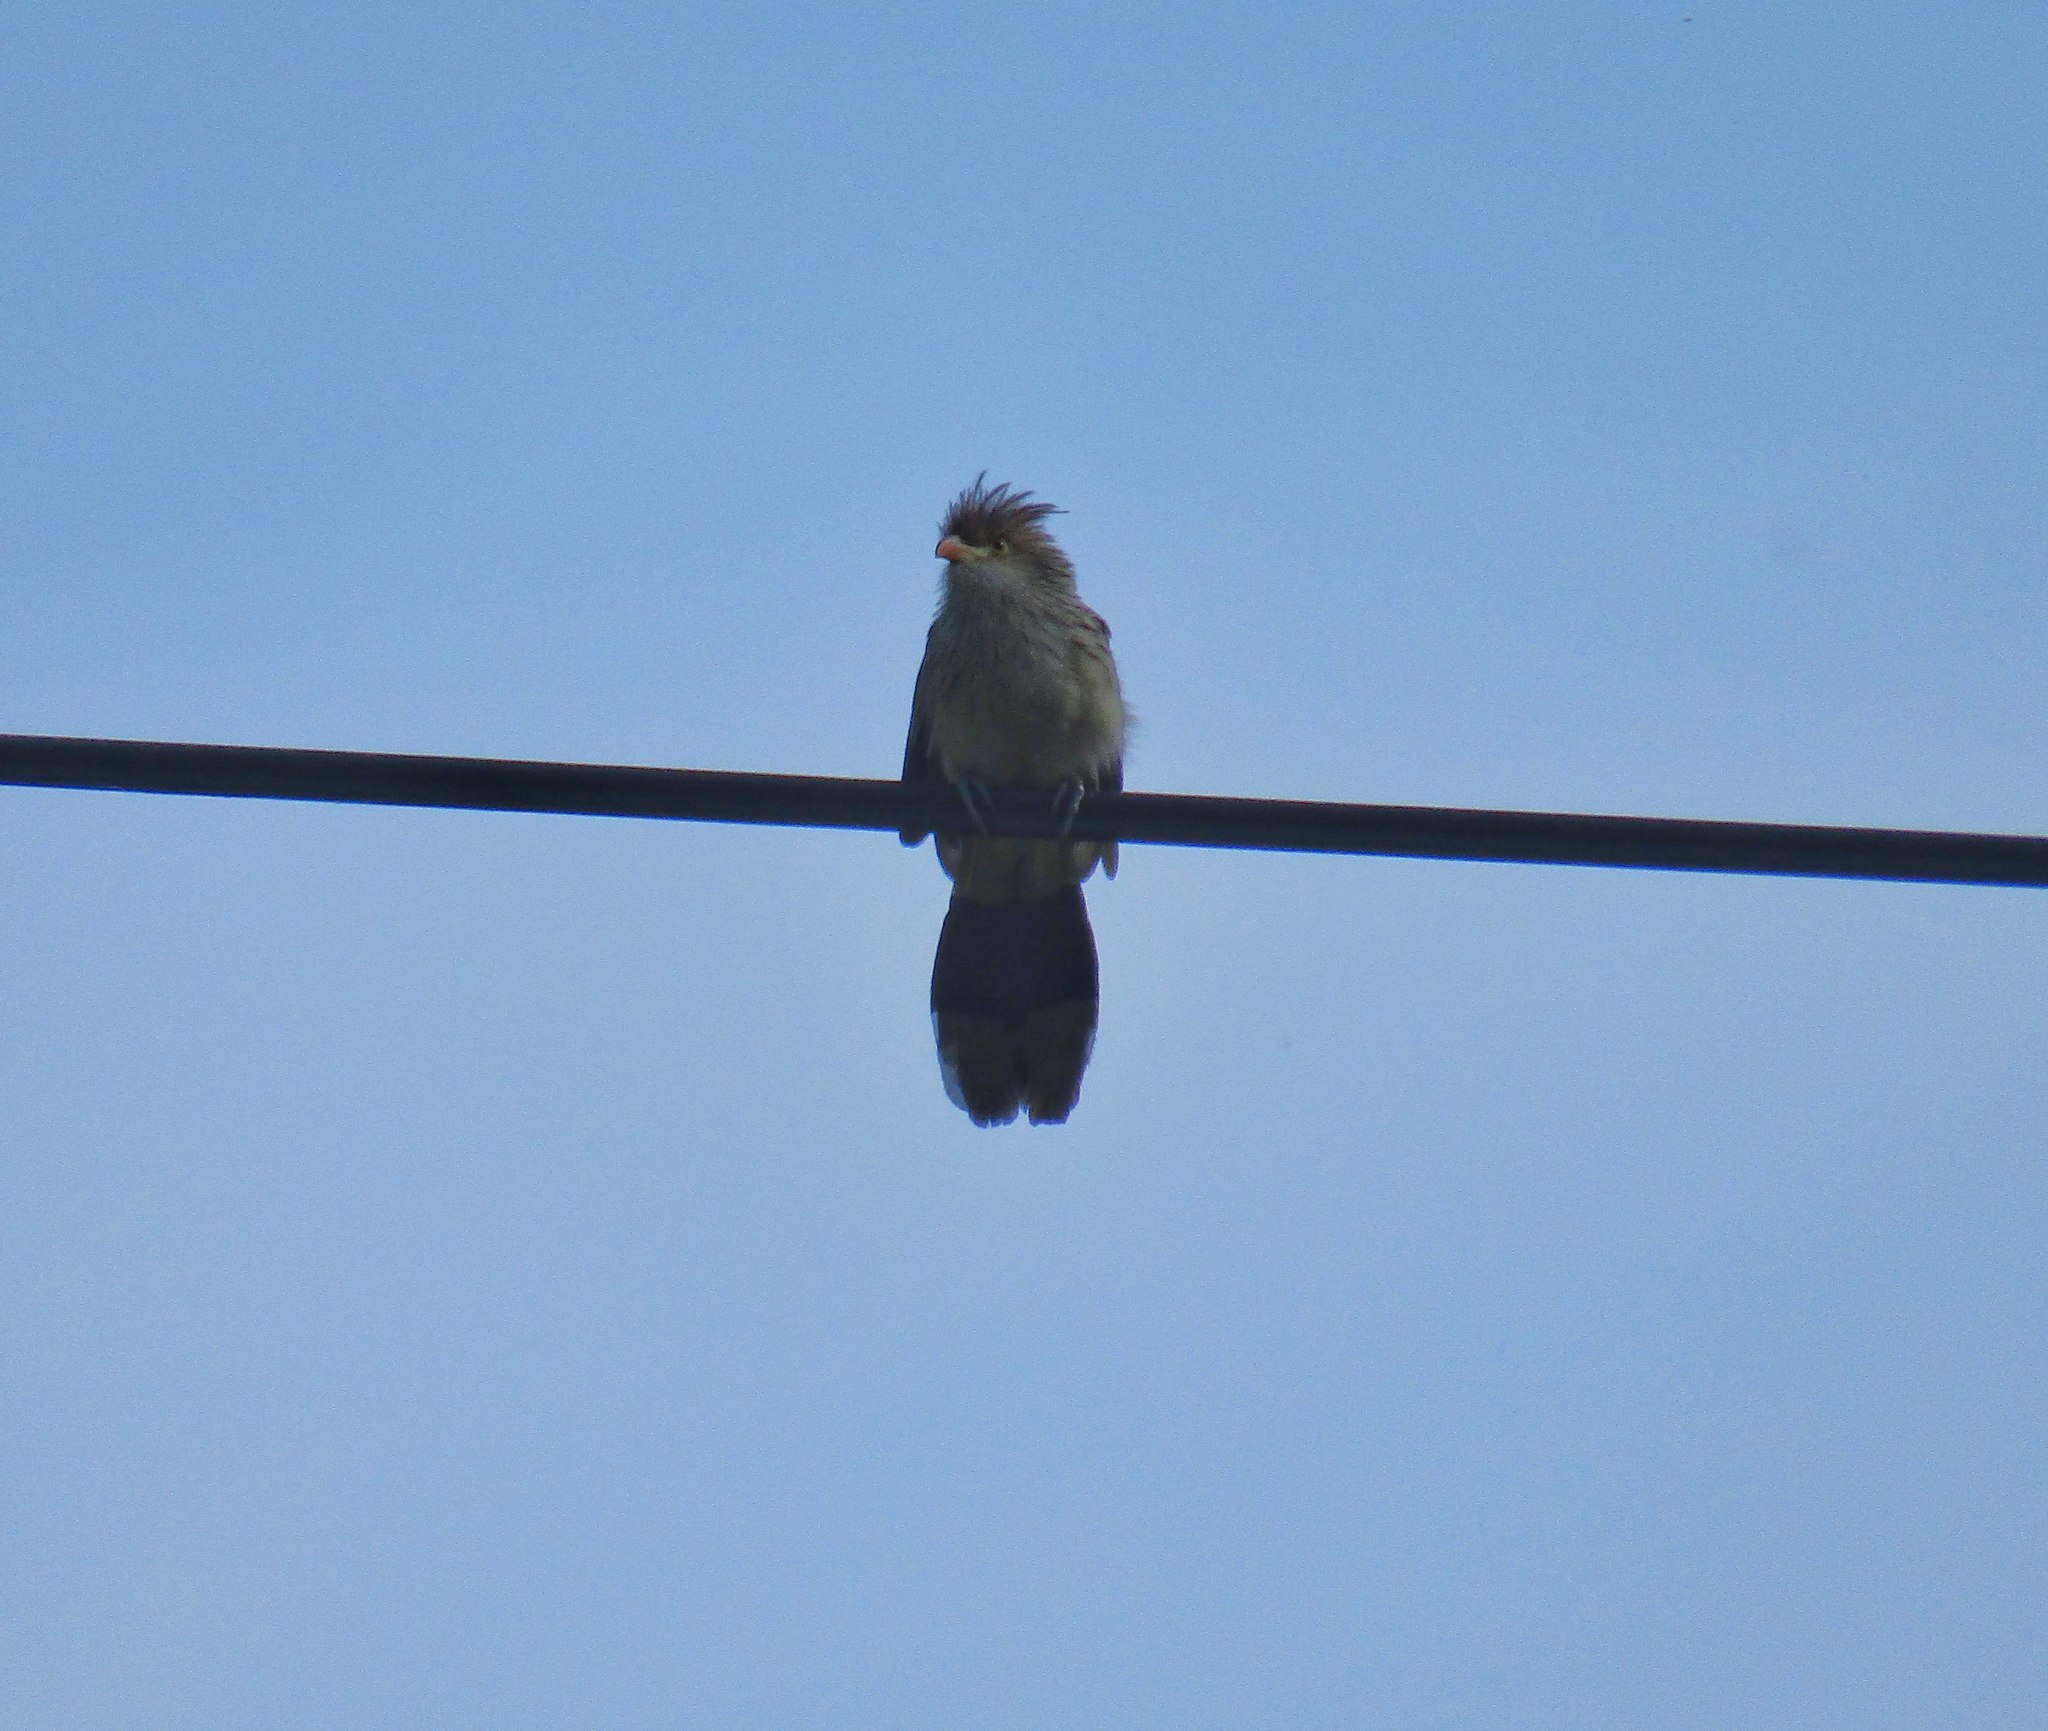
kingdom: Animalia
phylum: Chordata
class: Aves
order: Cuculiformes
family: Cuculidae
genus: Guira
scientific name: Guira guira
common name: Guira cuckoo
